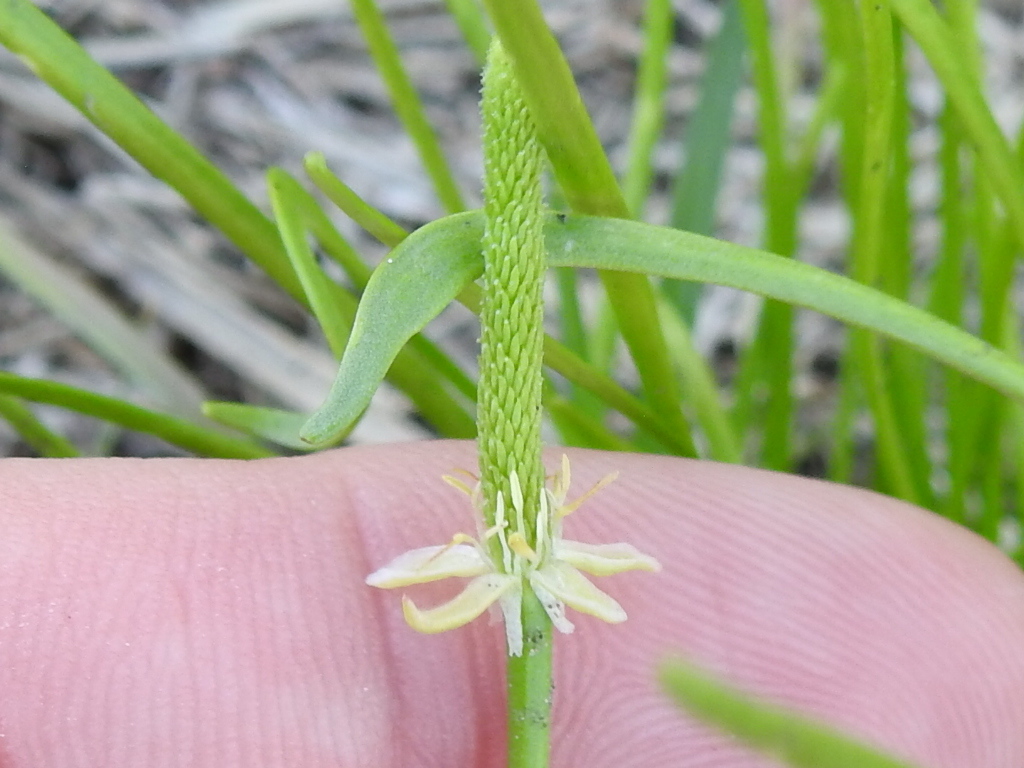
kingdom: Plantae
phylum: Tracheophyta
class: Magnoliopsida
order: Ranunculales
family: Ranunculaceae
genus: Myosurus
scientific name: Myosurus minimus
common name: Mousetail
